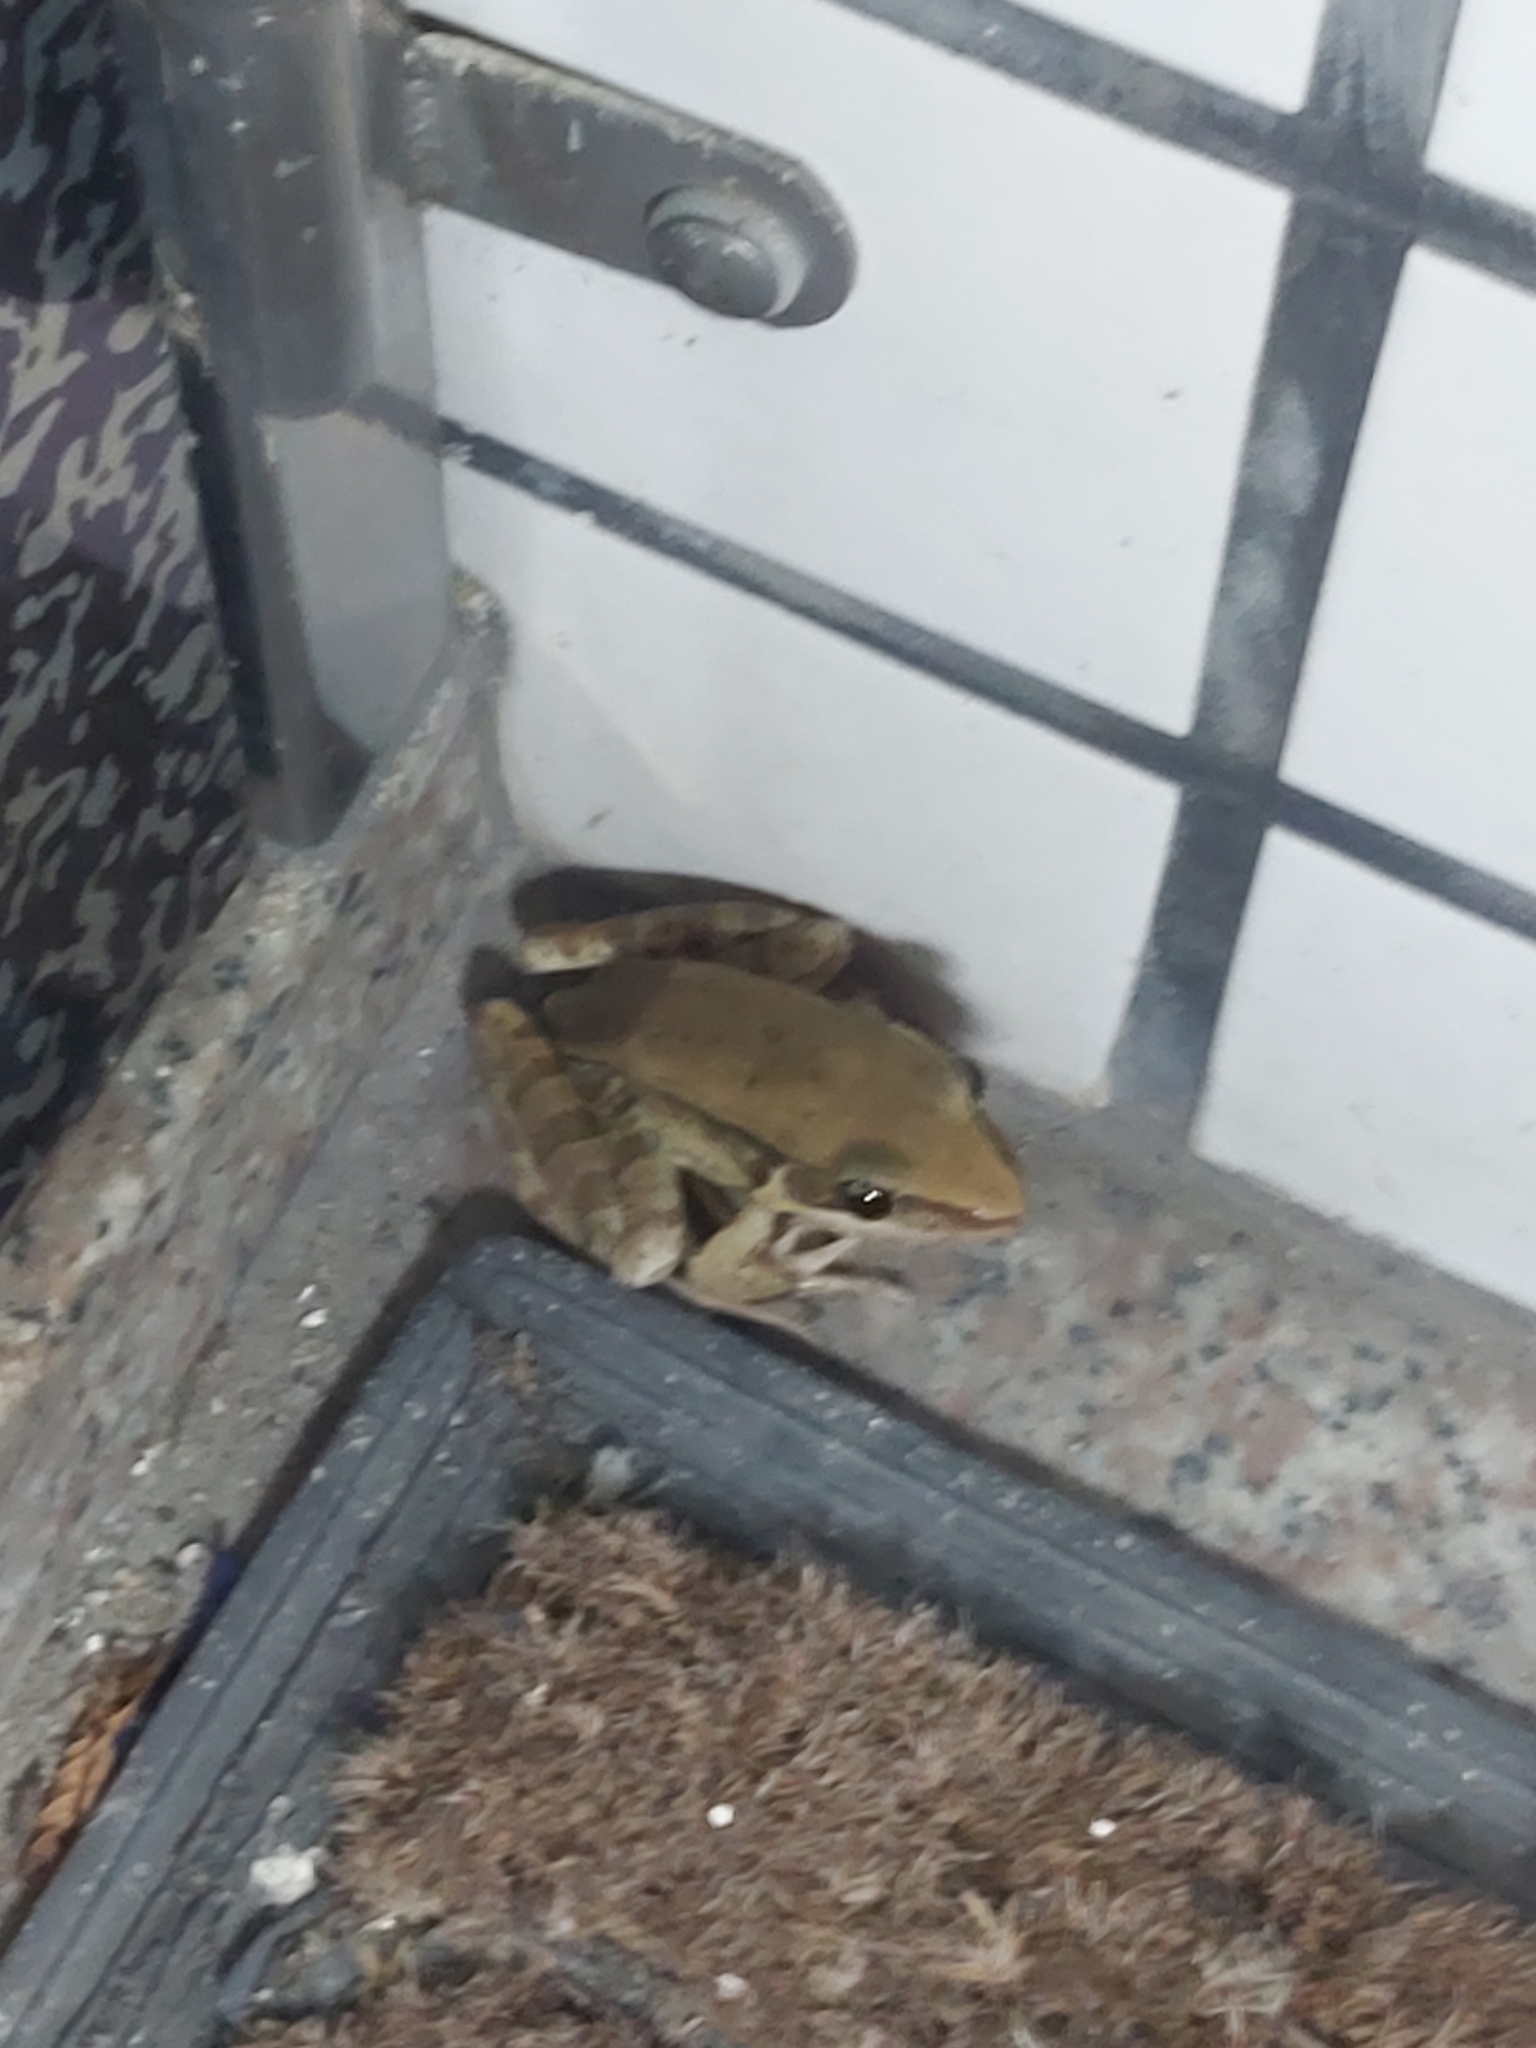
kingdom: Animalia
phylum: Chordata
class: Amphibia
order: Anura
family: Ranidae
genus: Sylvirana
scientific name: Sylvirana guentheri
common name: Guenther's amoy frog
